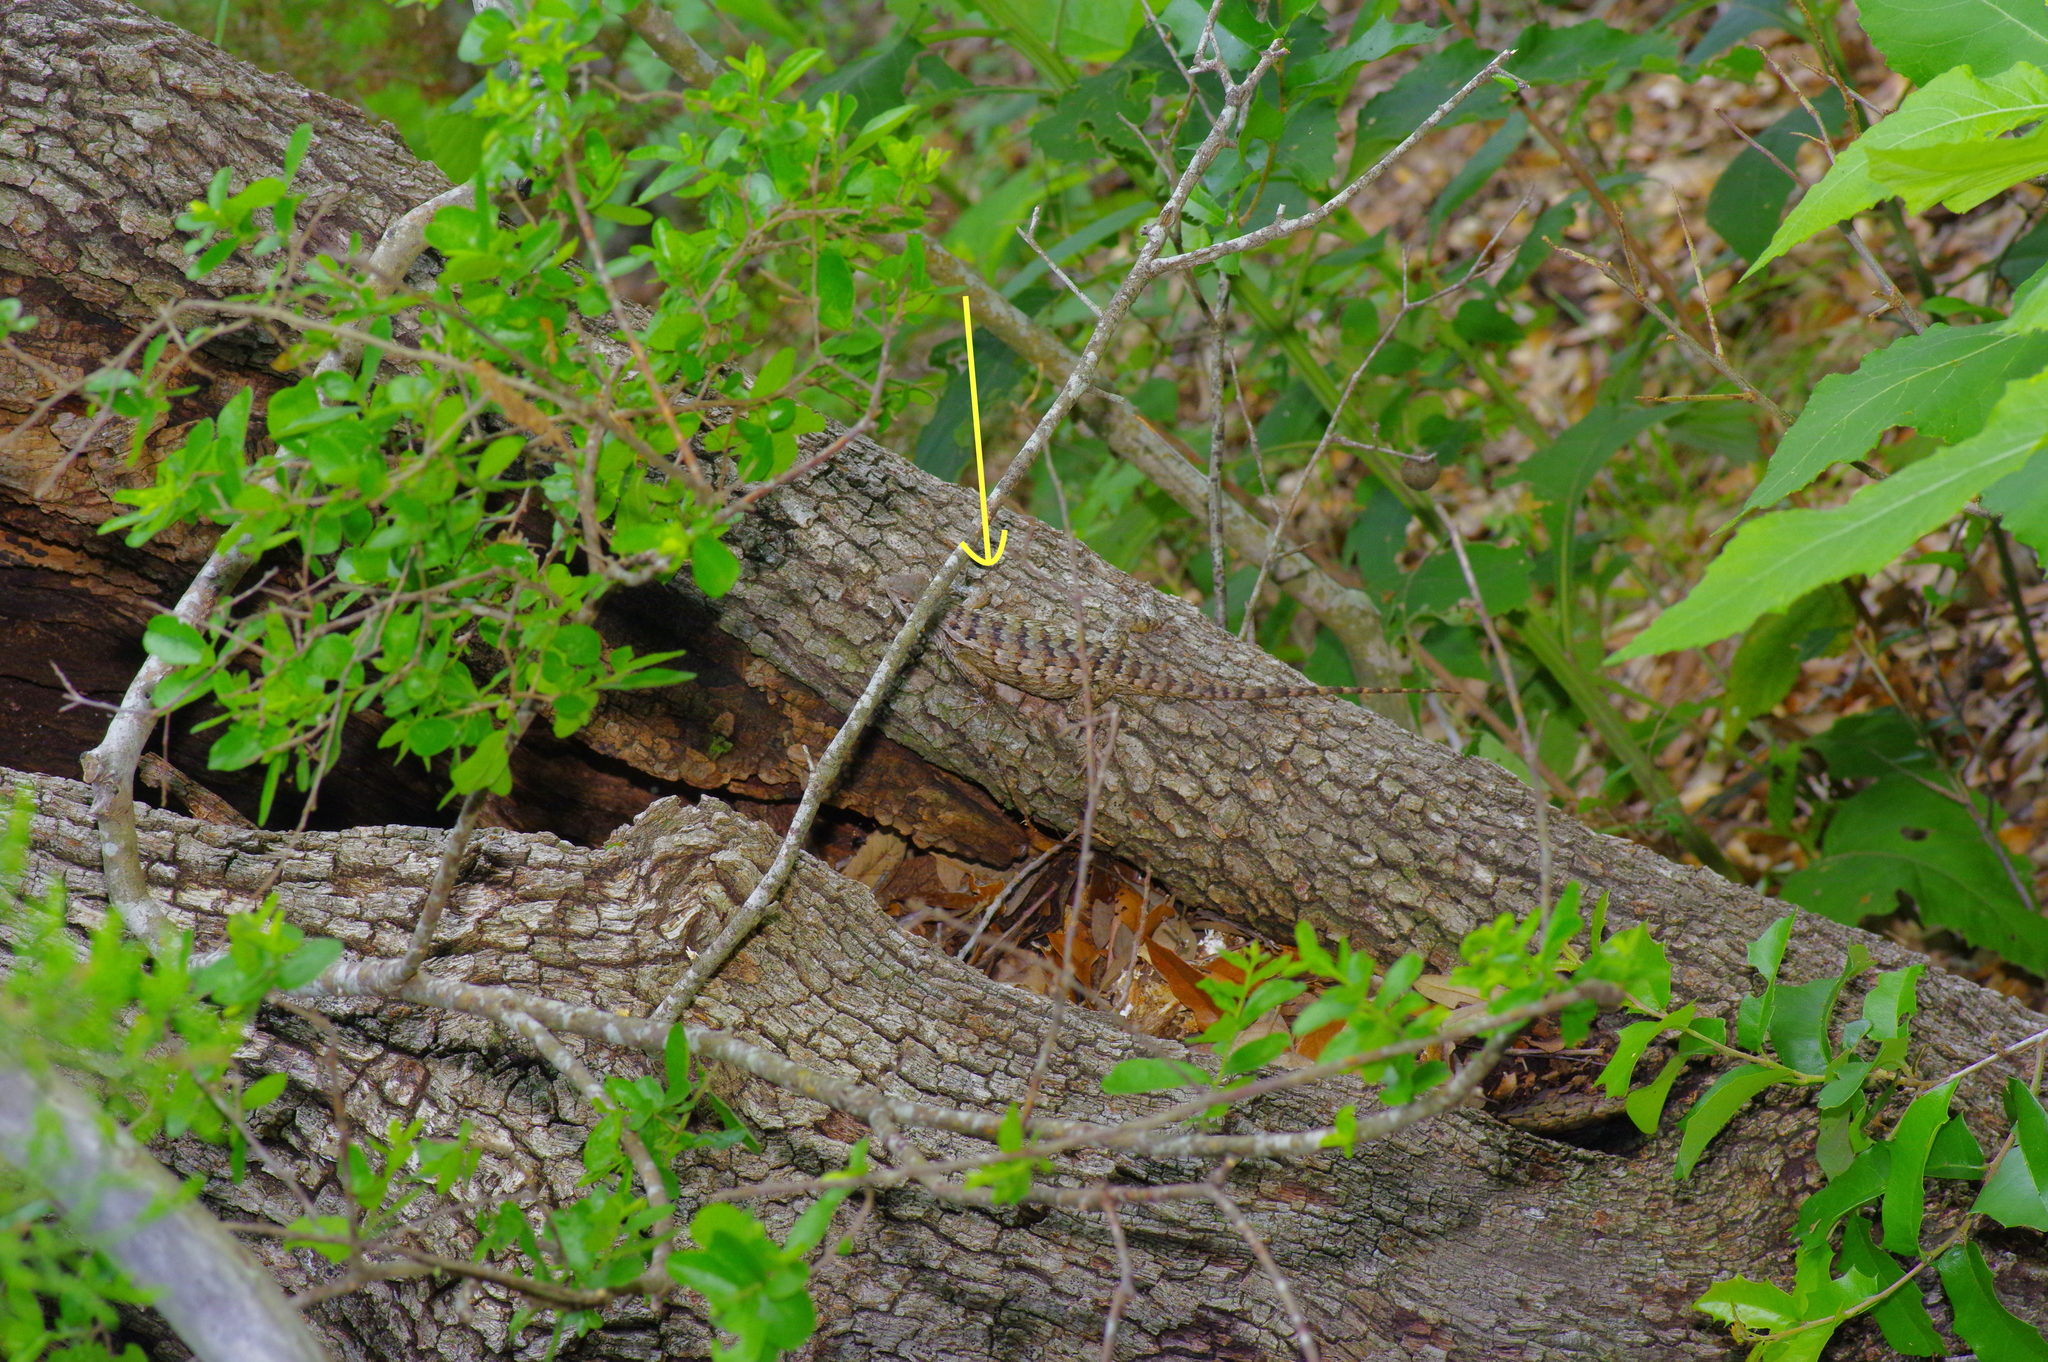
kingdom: Animalia
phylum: Chordata
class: Squamata
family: Phrynosomatidae
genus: Sceloporus
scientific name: Sceloporus olivaceus
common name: Texas spiny lizard
